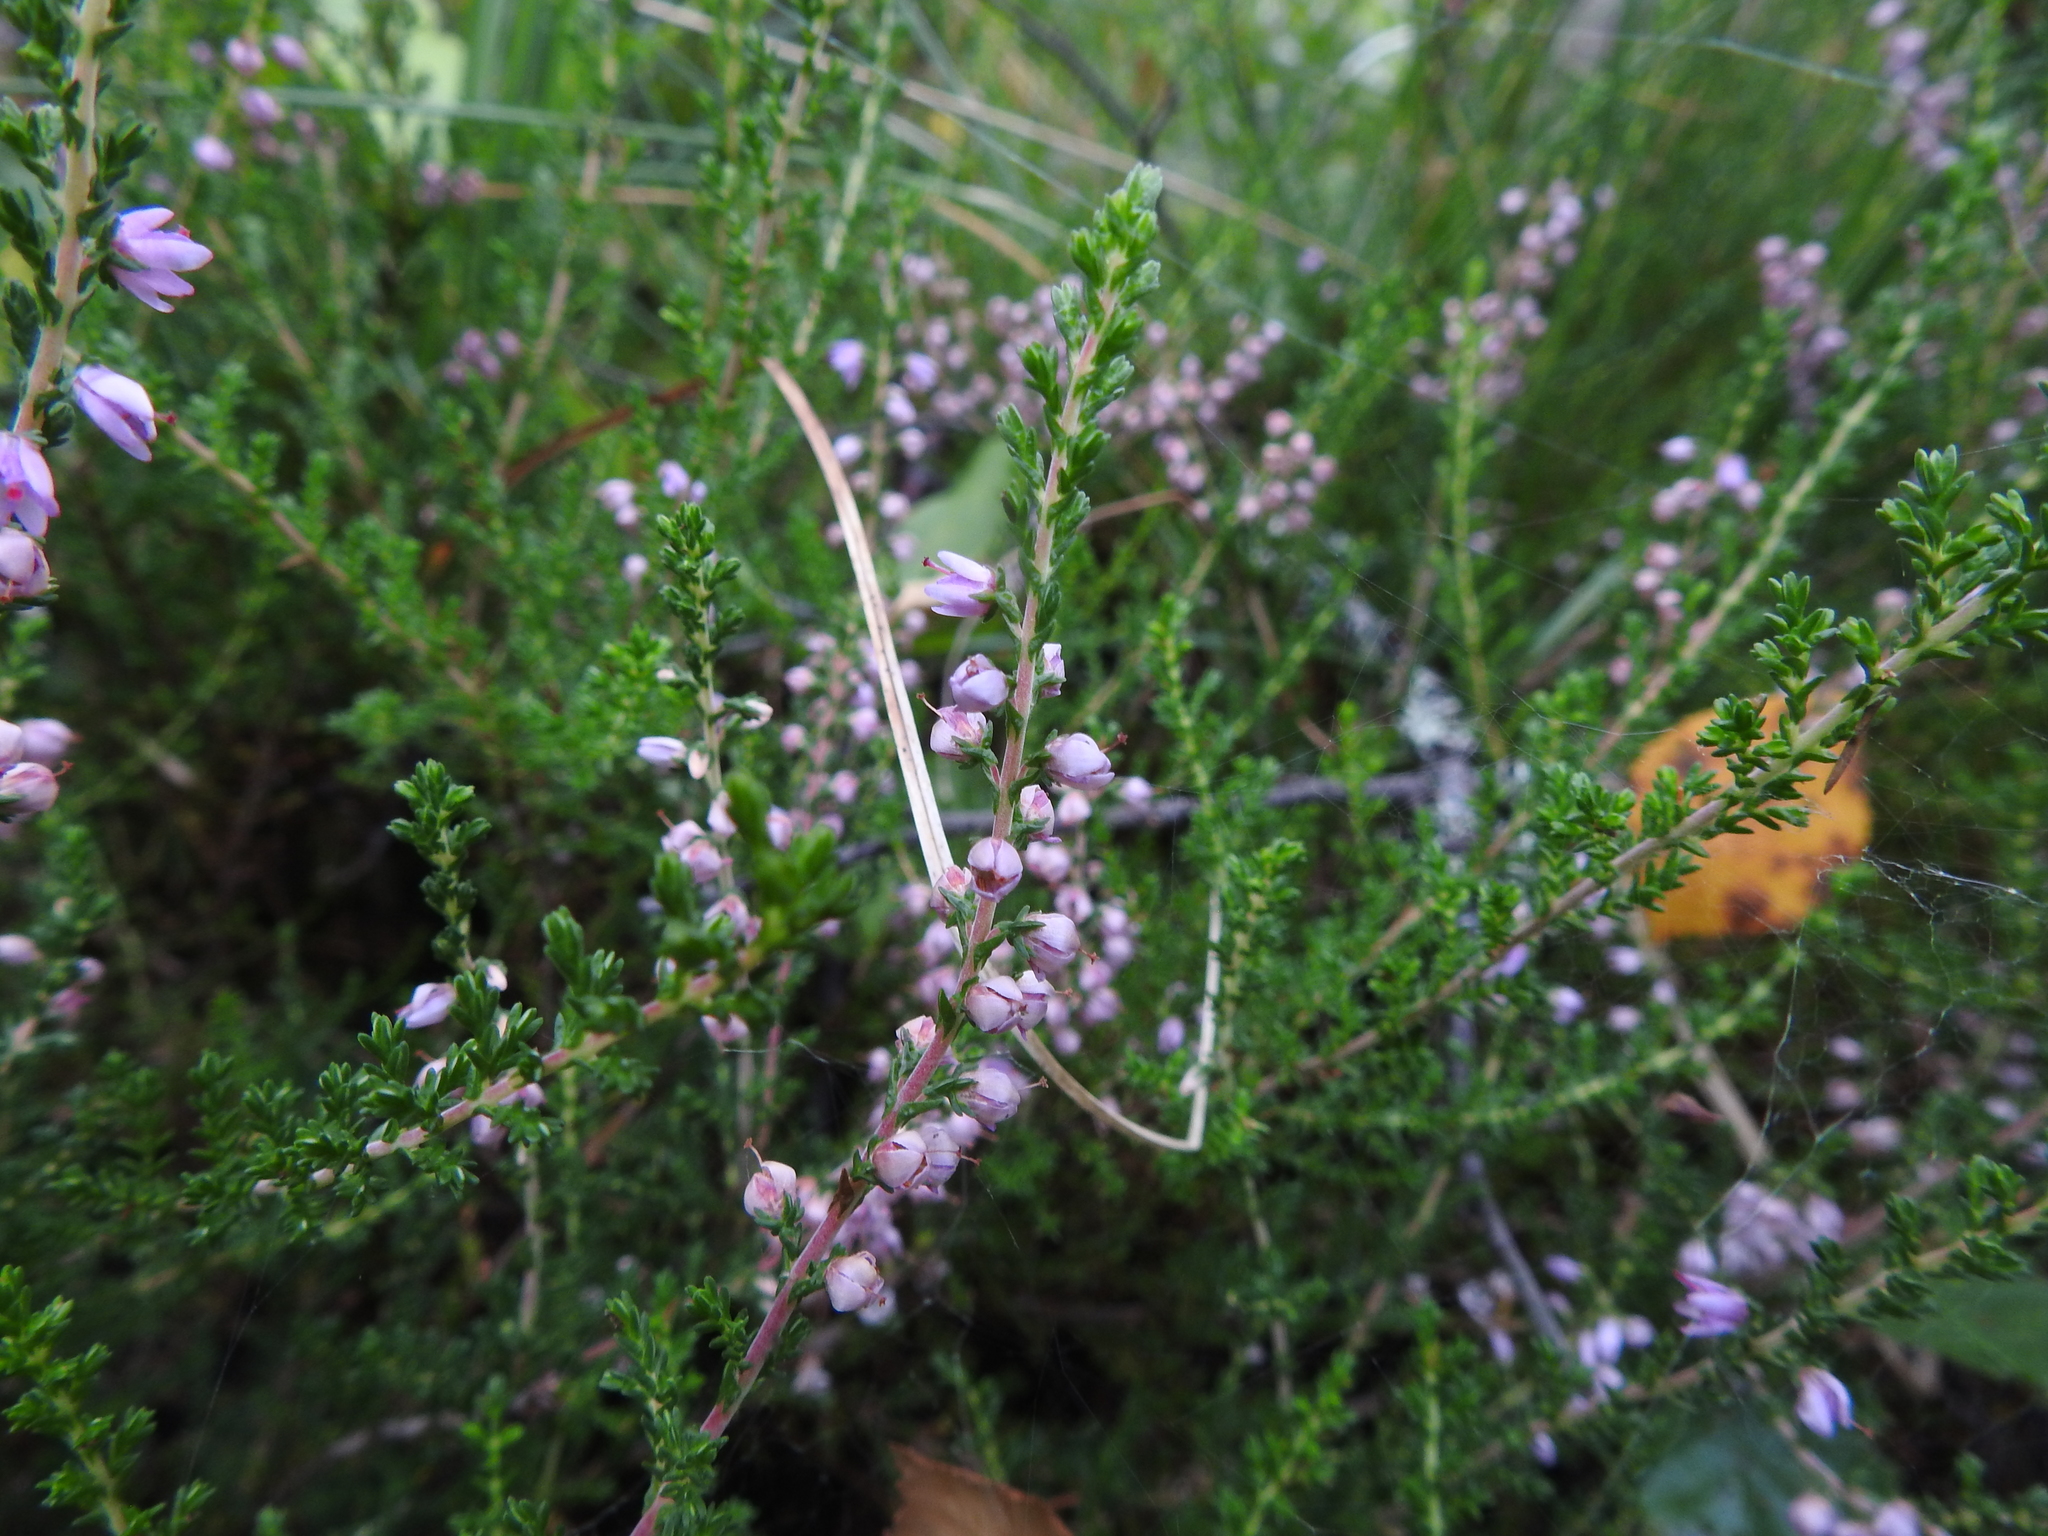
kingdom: Plantae
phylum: Tracheophyta
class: Magnoliopsida
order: Ericales
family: Ericaceae
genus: Calluna
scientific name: Calluna vulgaris
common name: Heather
